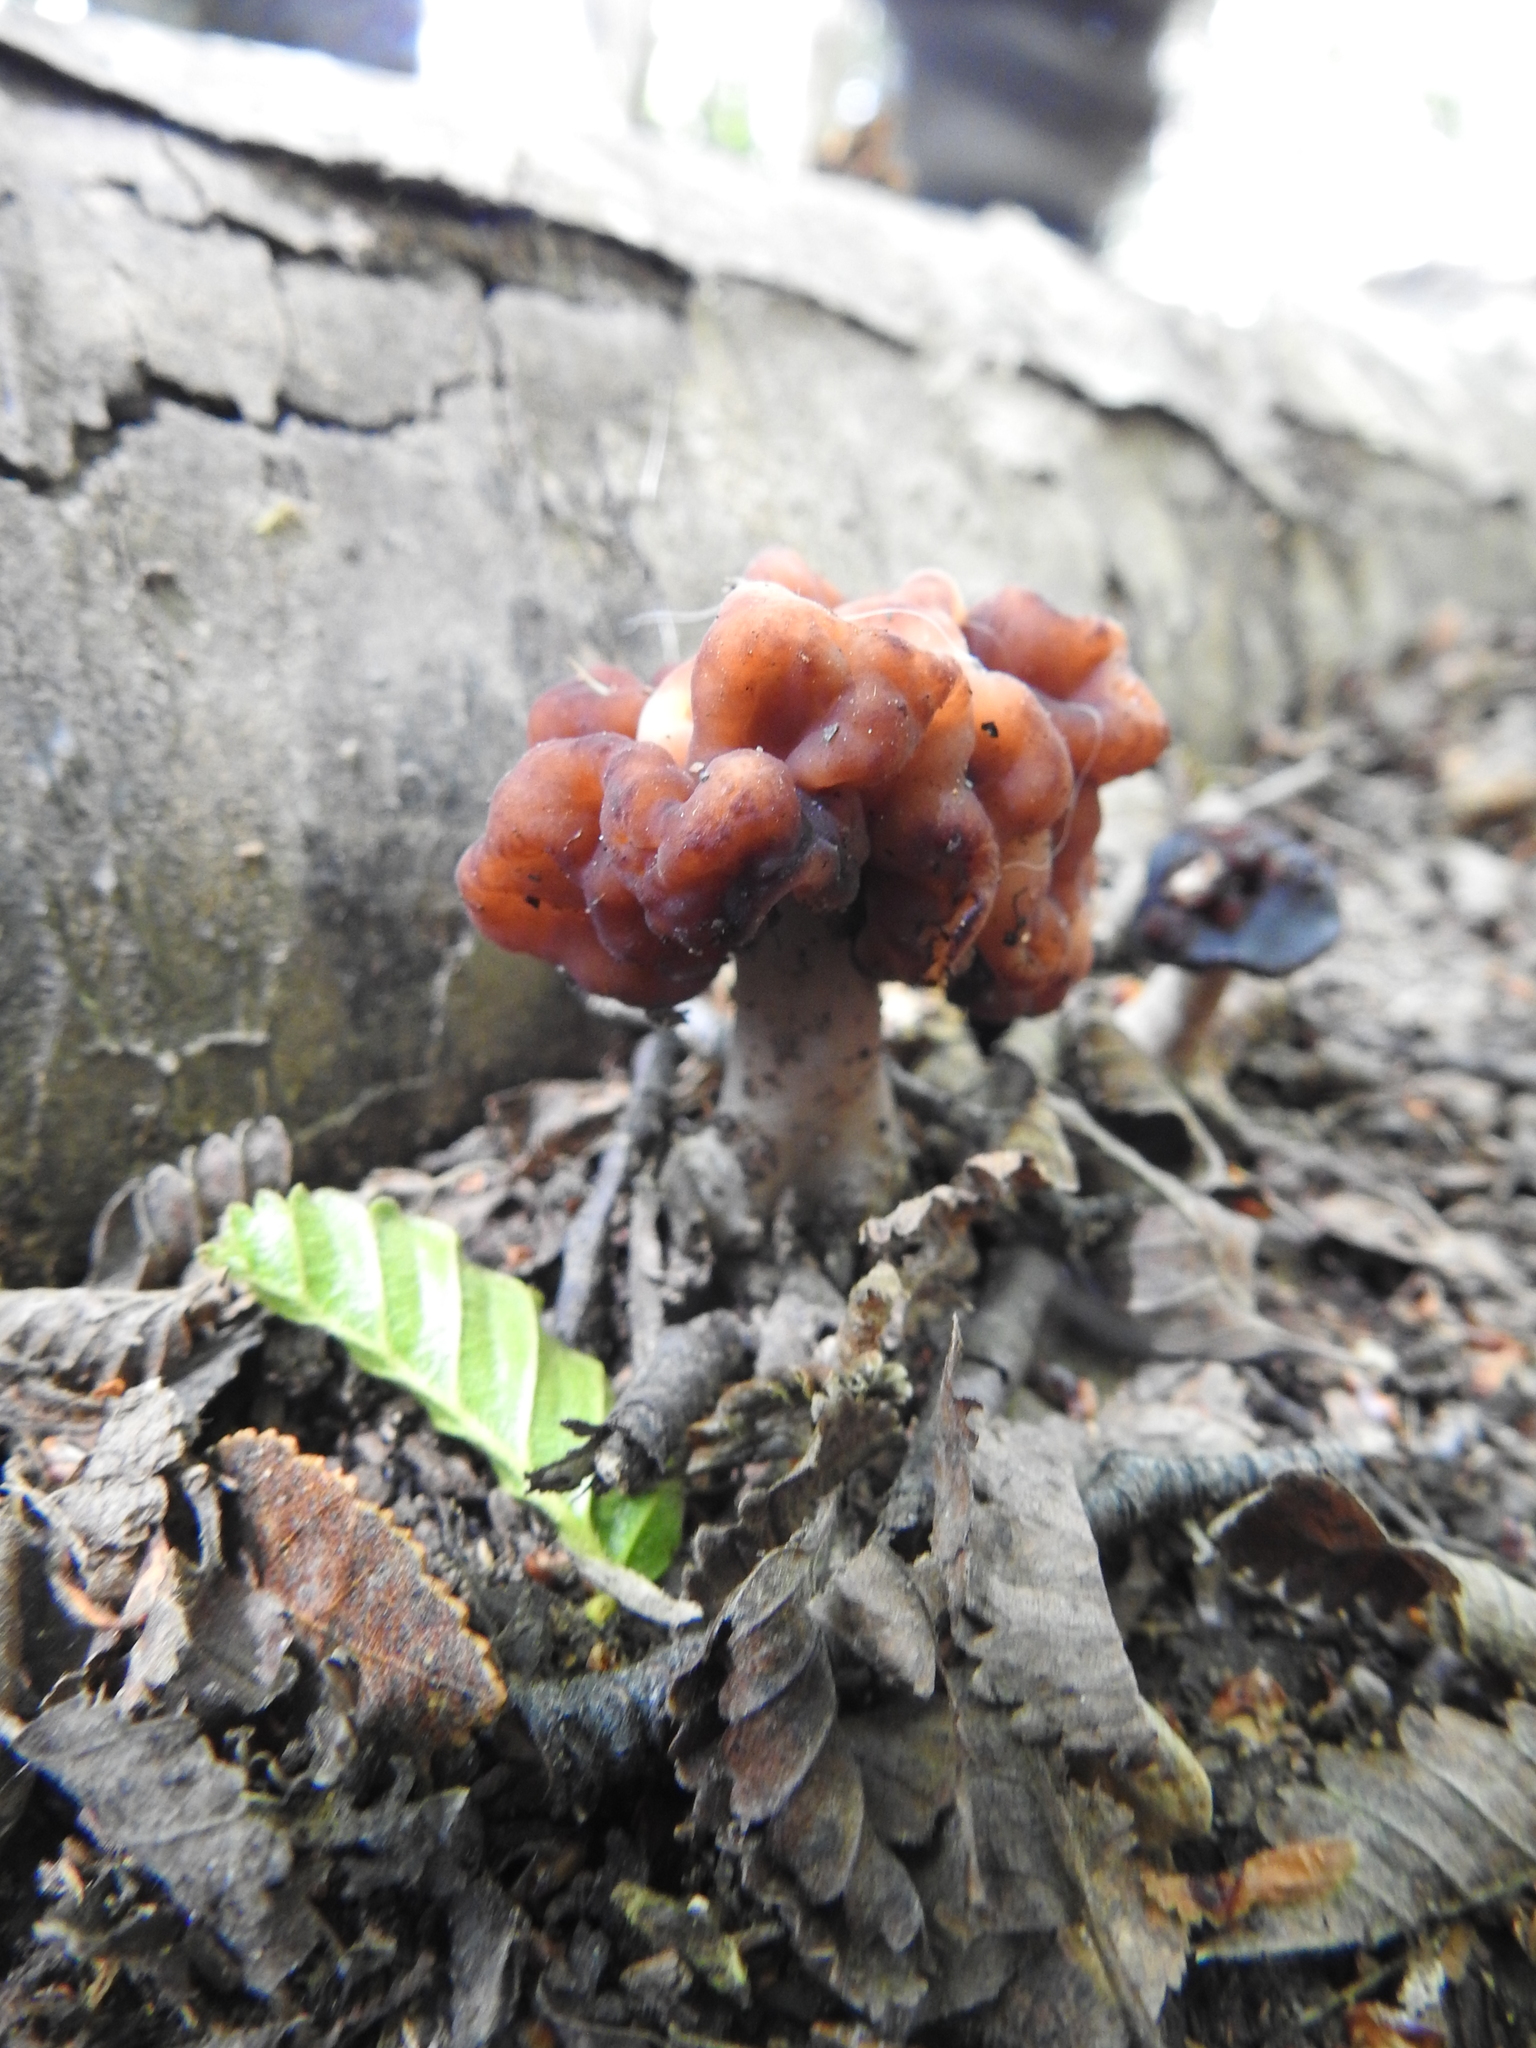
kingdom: Fungi
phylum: Ascomycota
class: Pezizomycetes
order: Pezizales
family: Discinaceae
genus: Gyromitra
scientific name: Gyromitra antarctica
